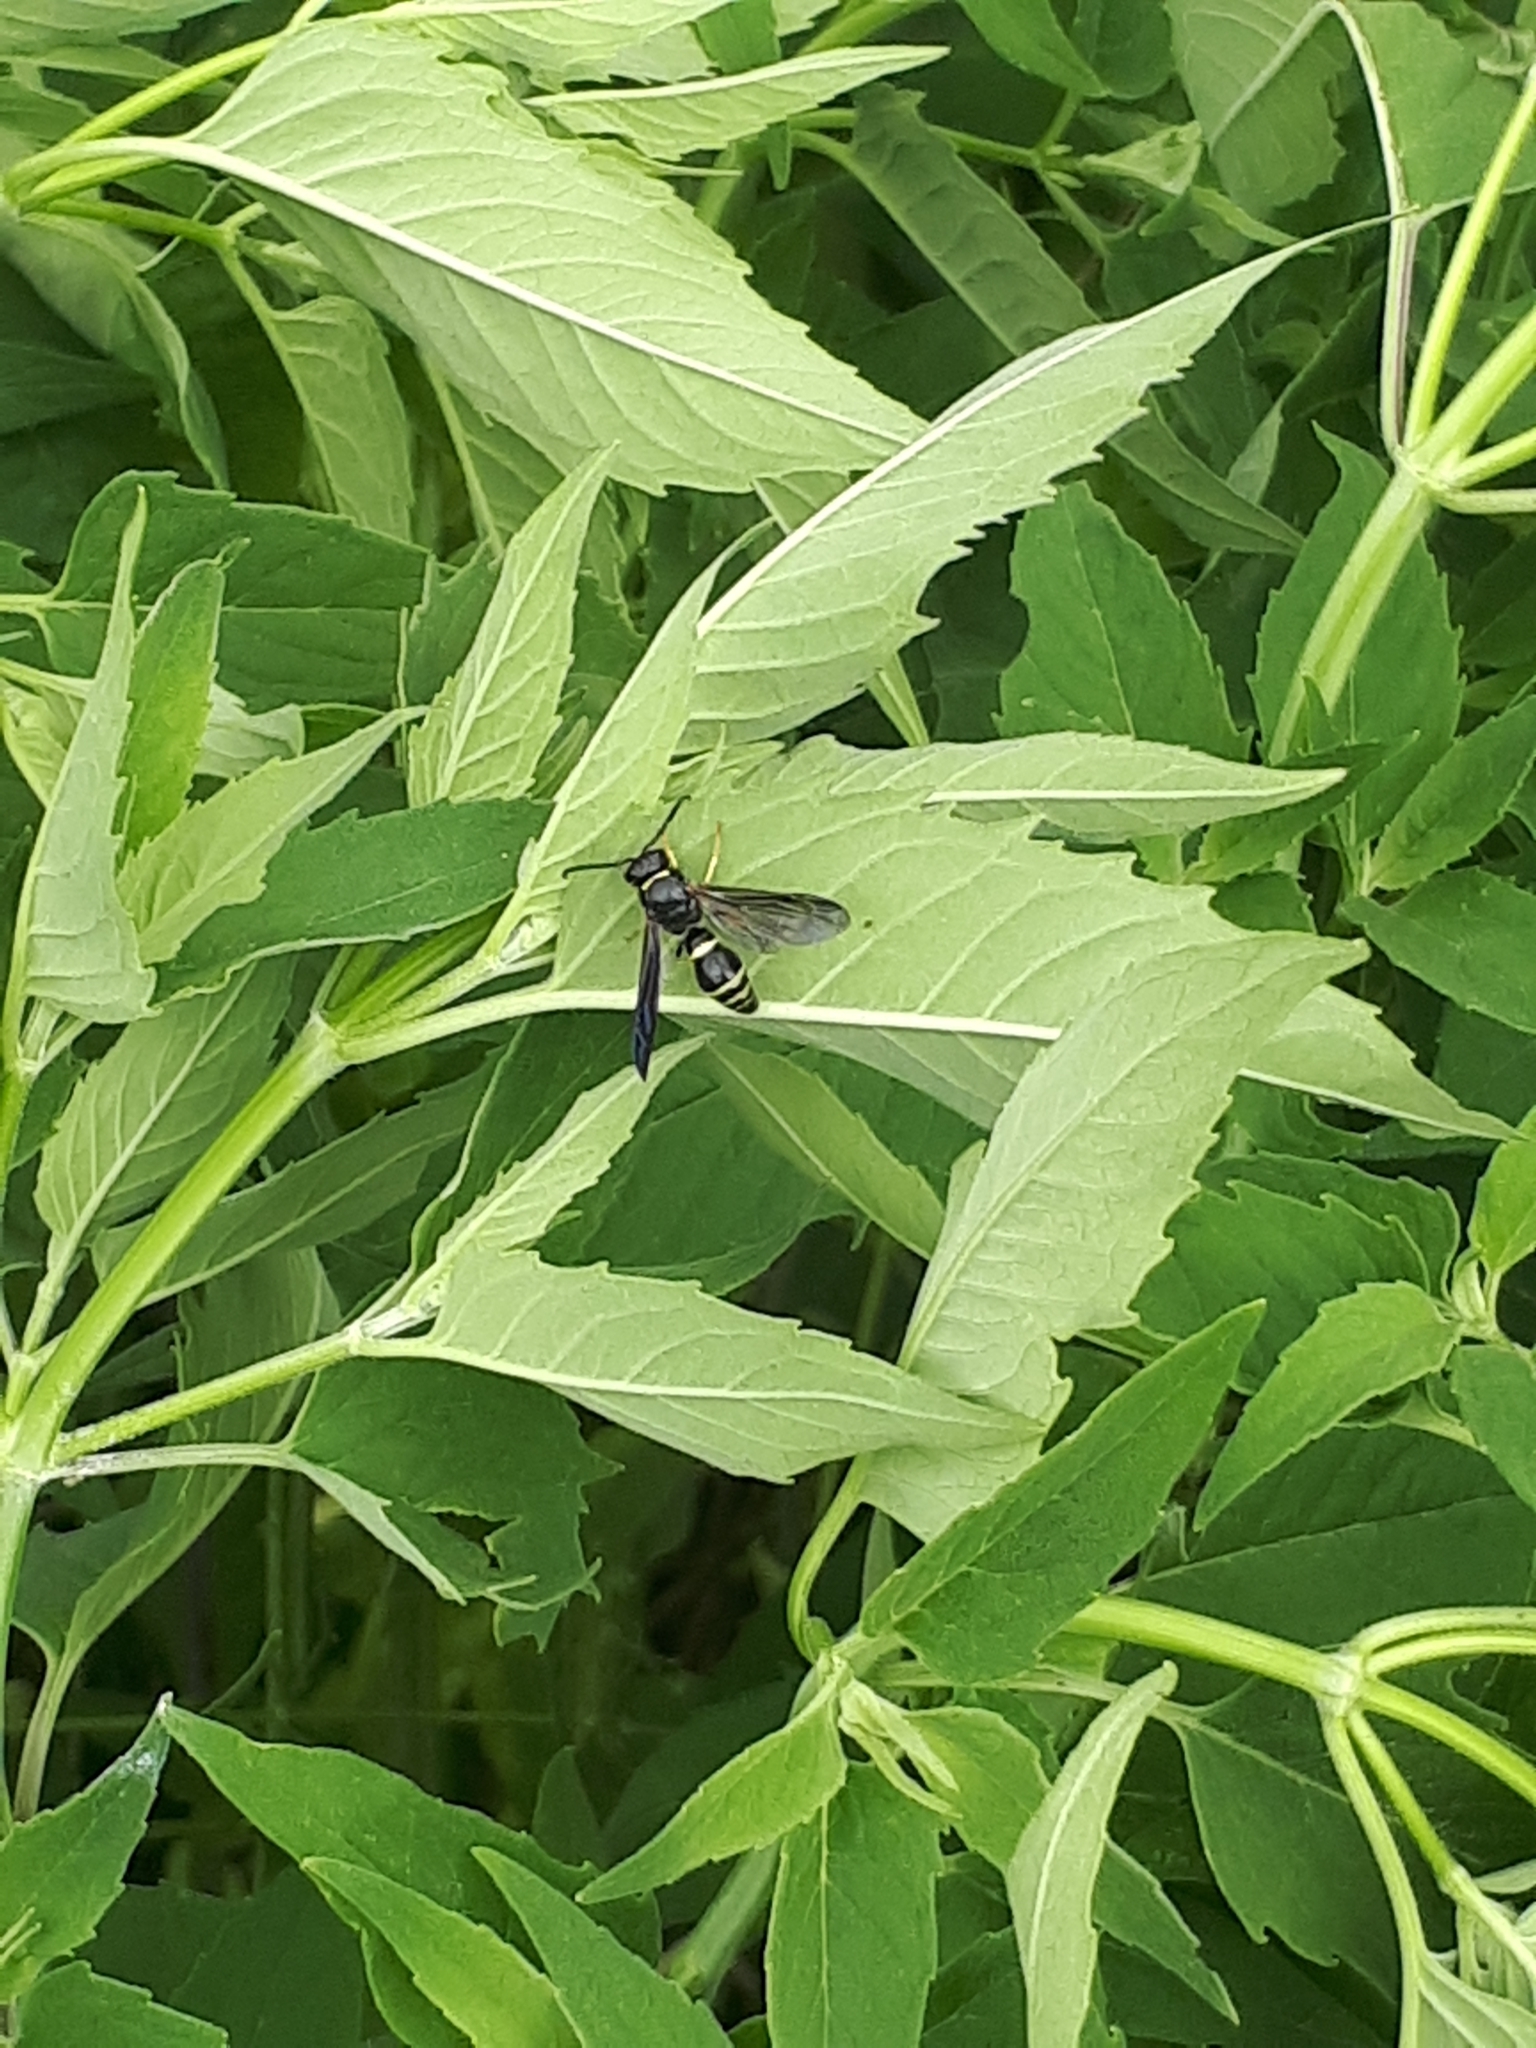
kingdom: Animalia
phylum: Arthropoda
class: Insecta
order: Hymenoptera
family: Eumenidae
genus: Parazumia
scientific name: Parazumia symmorpha
